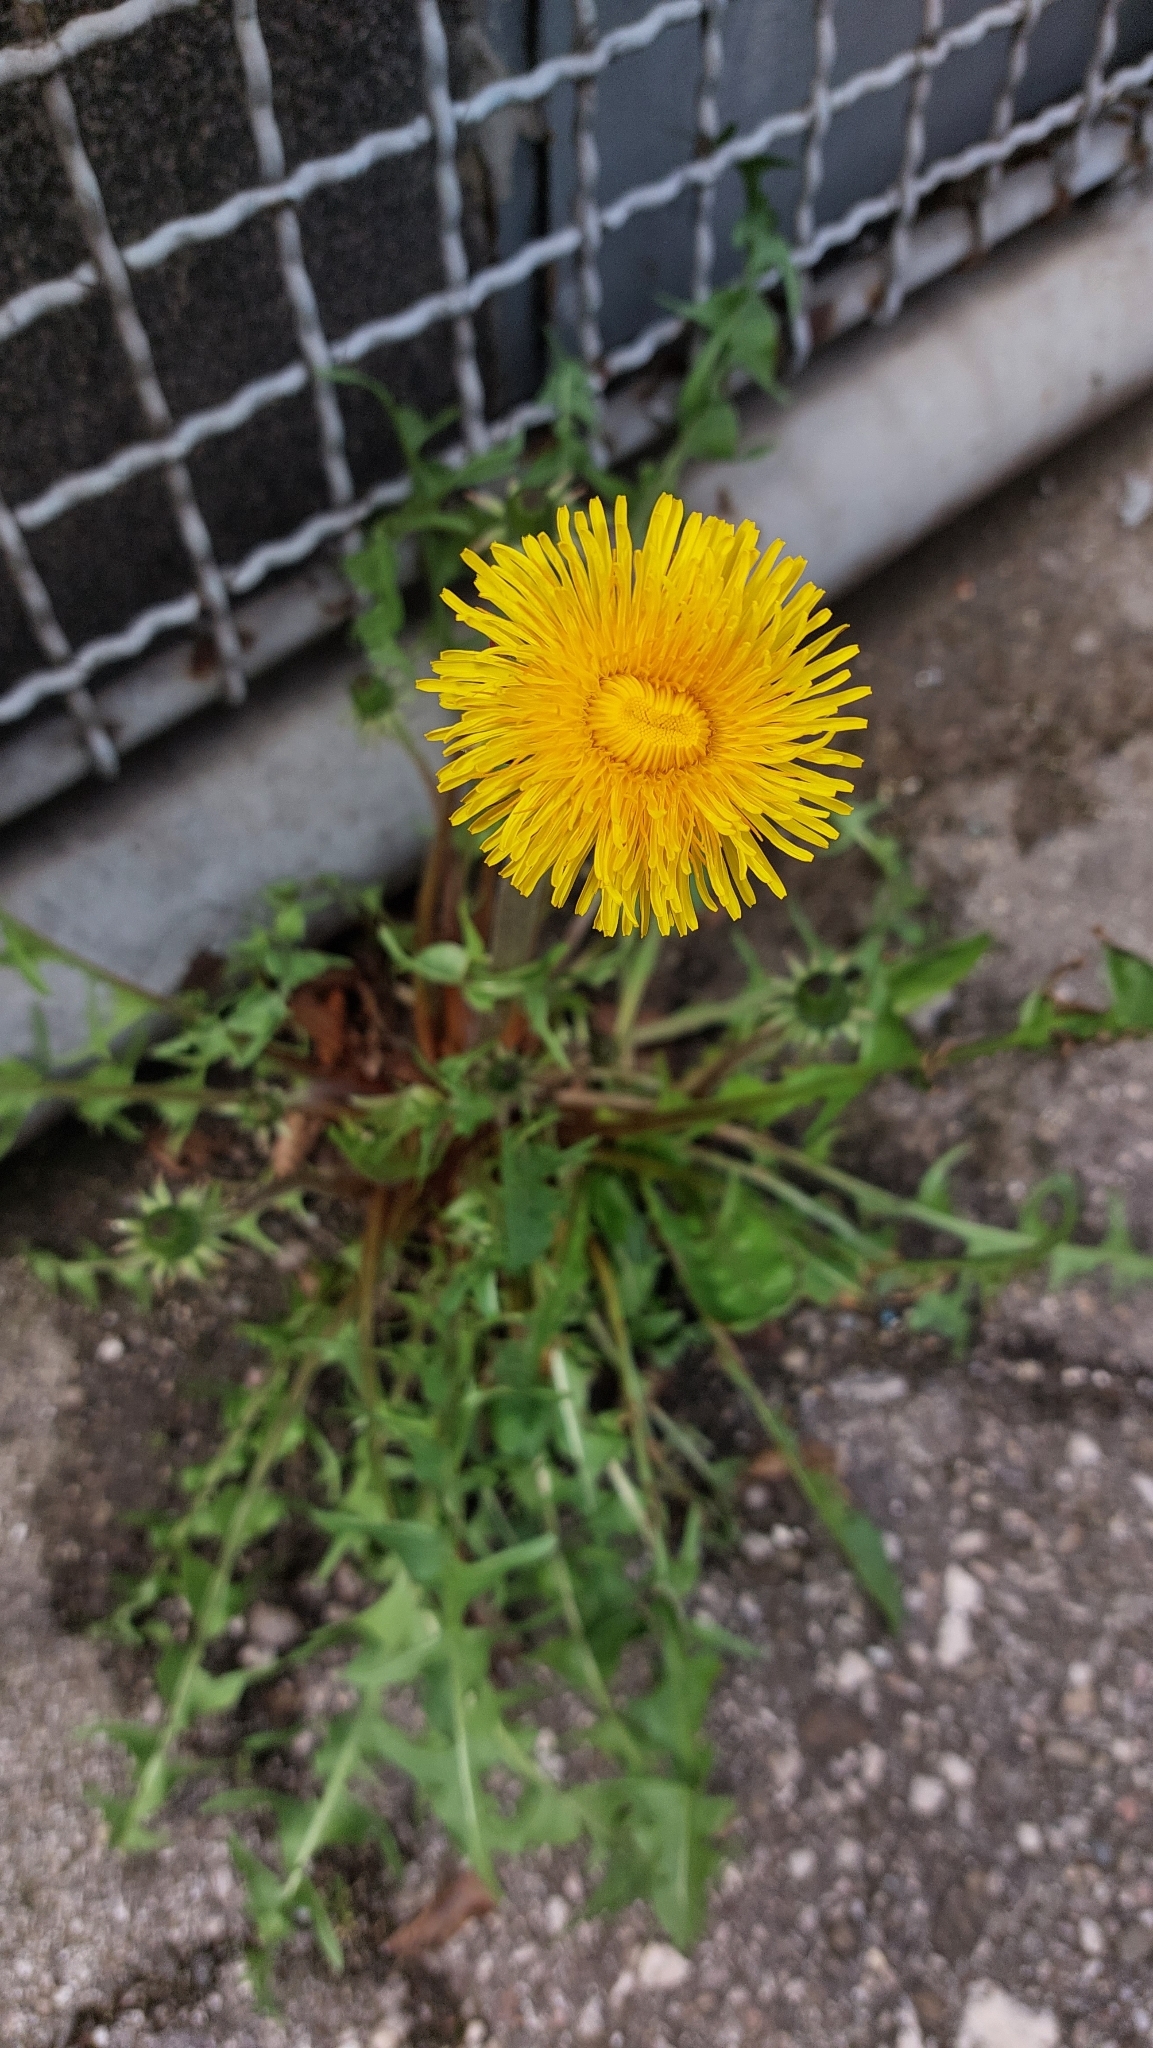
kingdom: Plantae
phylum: Tracheophyta
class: Magnoliopsida
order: Asterales
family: Asteraceae
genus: Taraxacum
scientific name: Taraxacum
